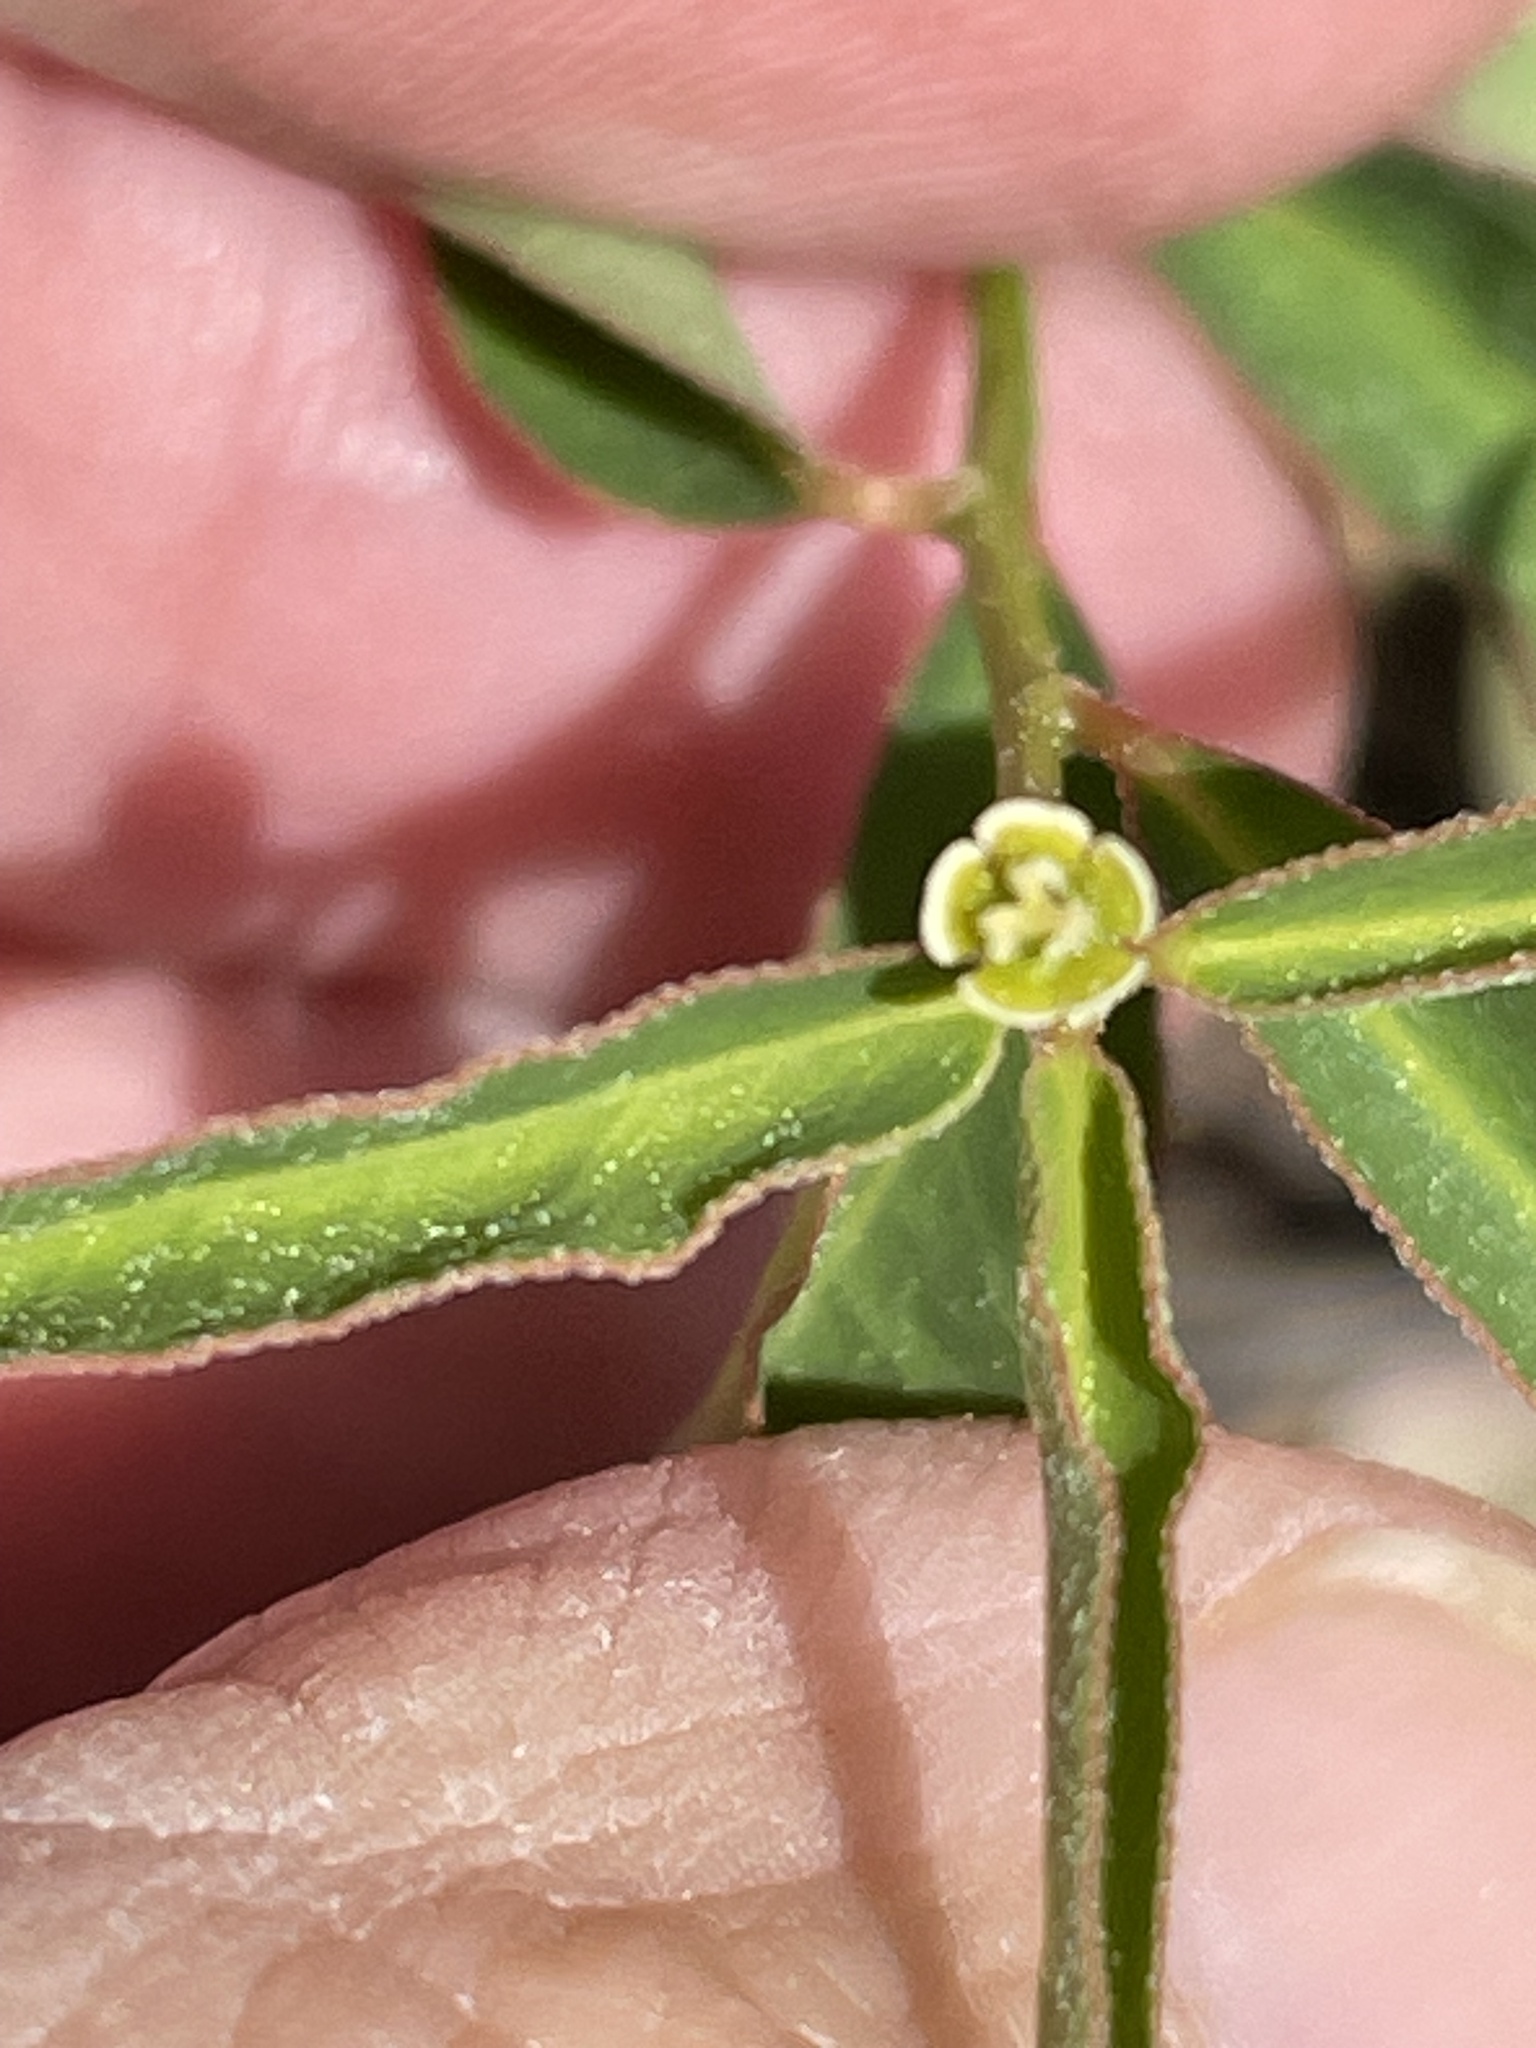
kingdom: Plantae
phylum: Tracheophyta
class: Magnoliopsida
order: Malpighiales
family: Euphorbiaceae
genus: Euphorbia
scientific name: Euphorbia curtisii
